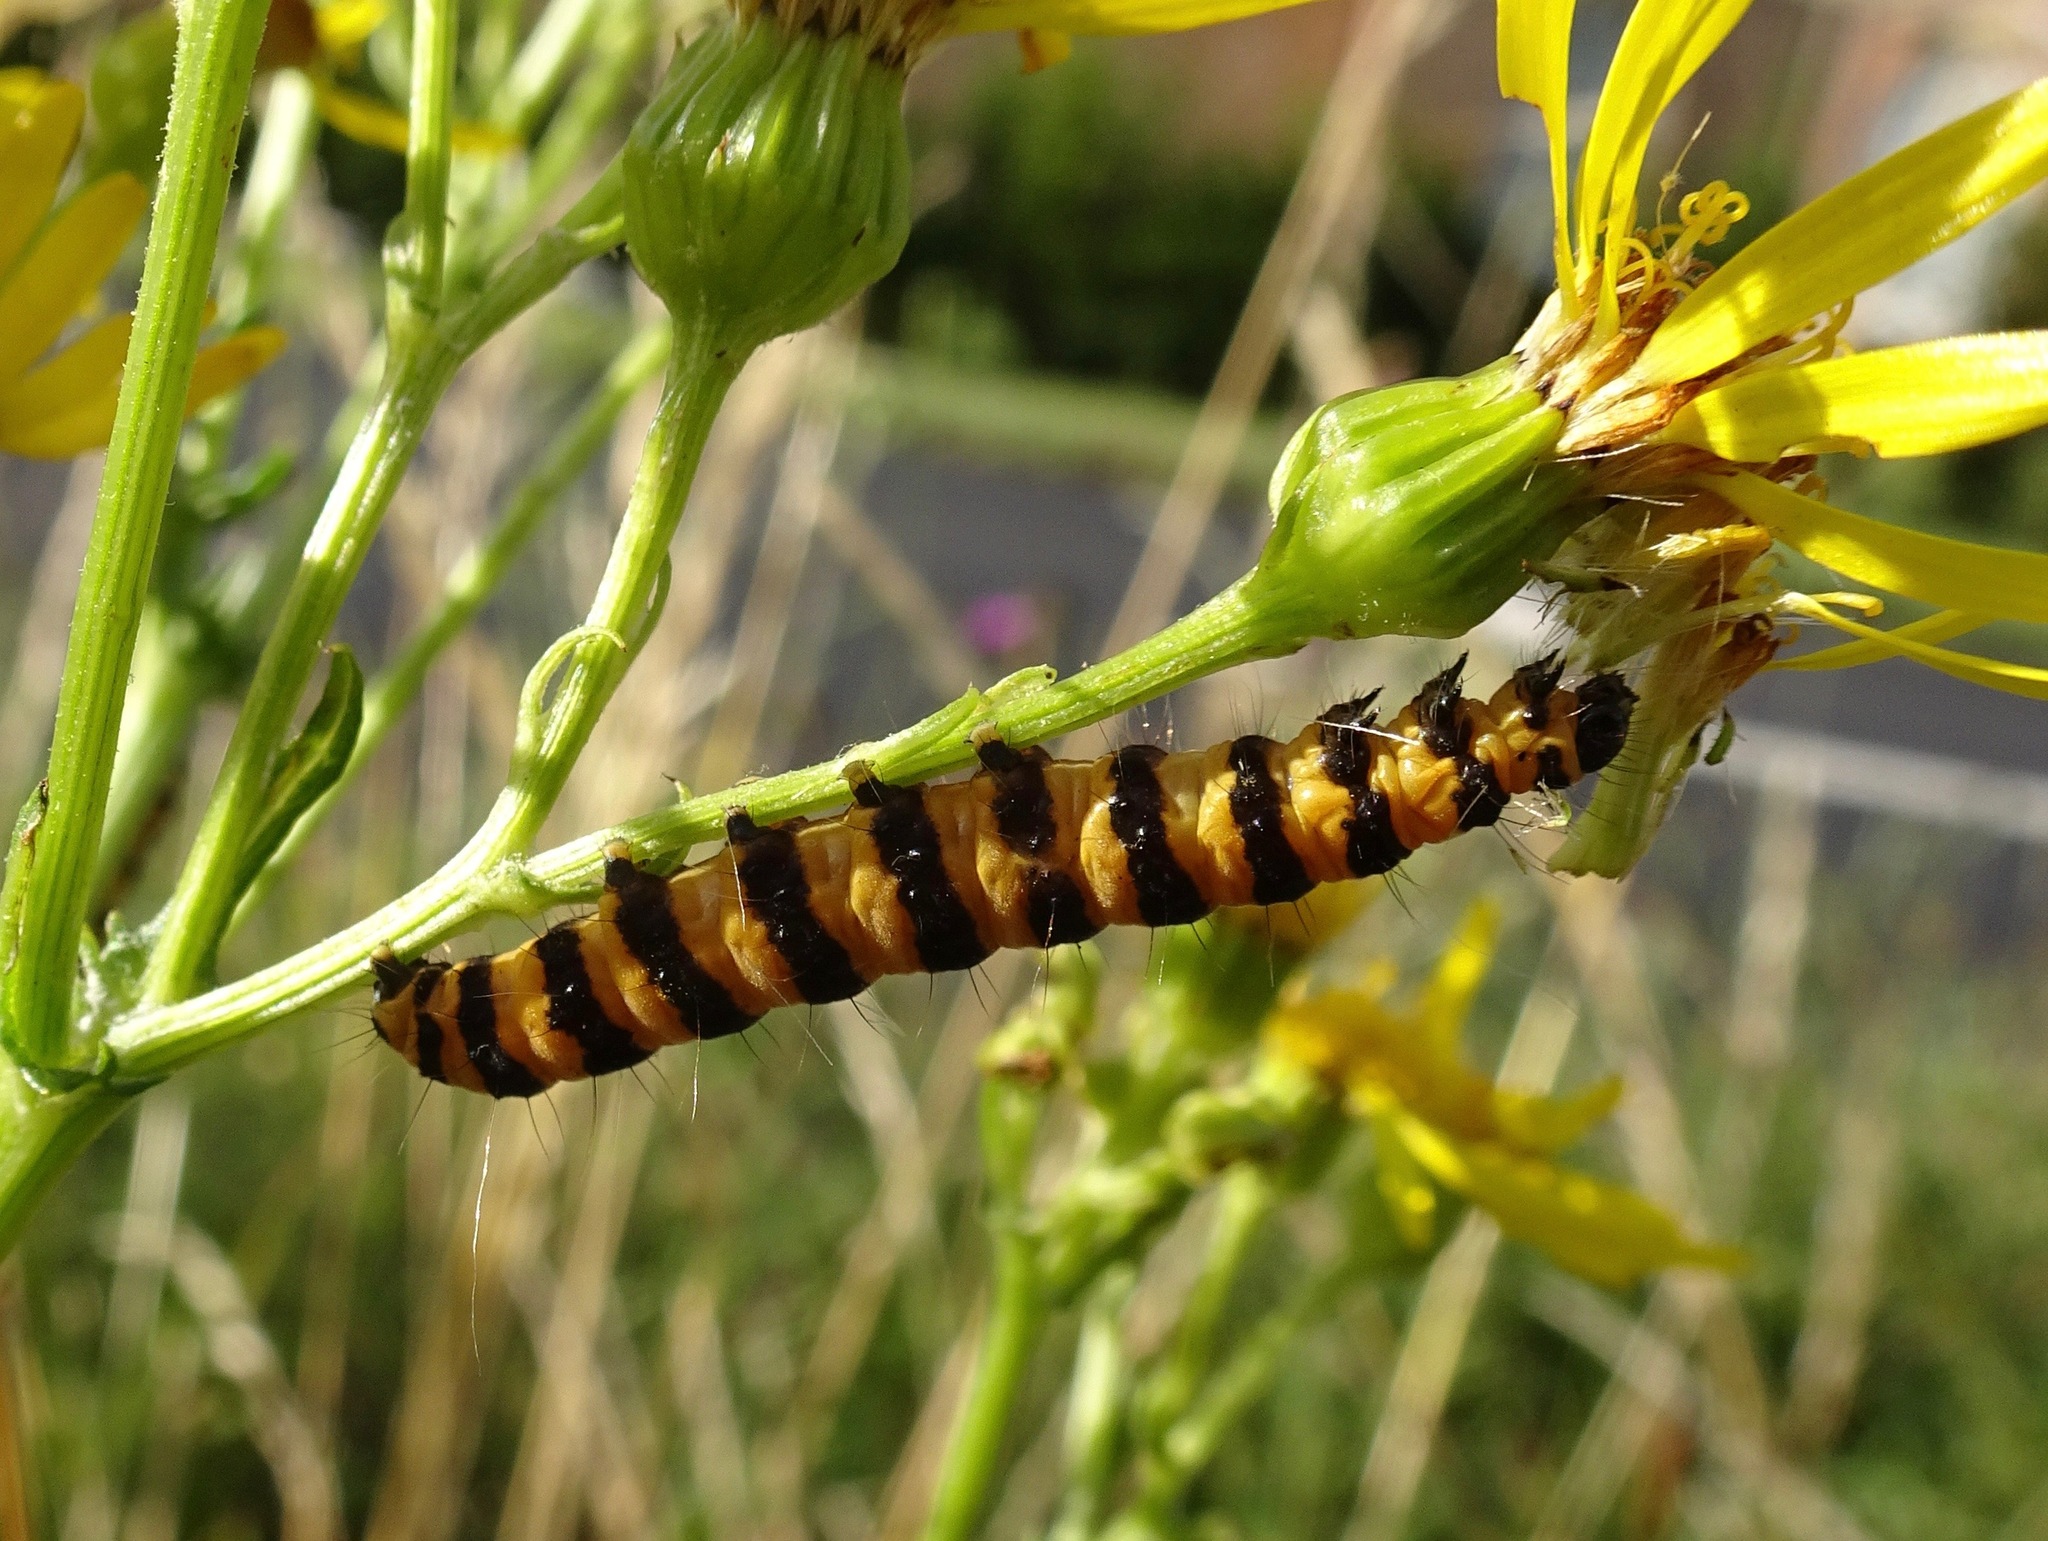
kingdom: Animalia
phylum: Arthropoda
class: Insecta
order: Lepidoptera
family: Erebidae
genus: Tyria
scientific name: Tyria jacobaeae
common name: Cinnabar
